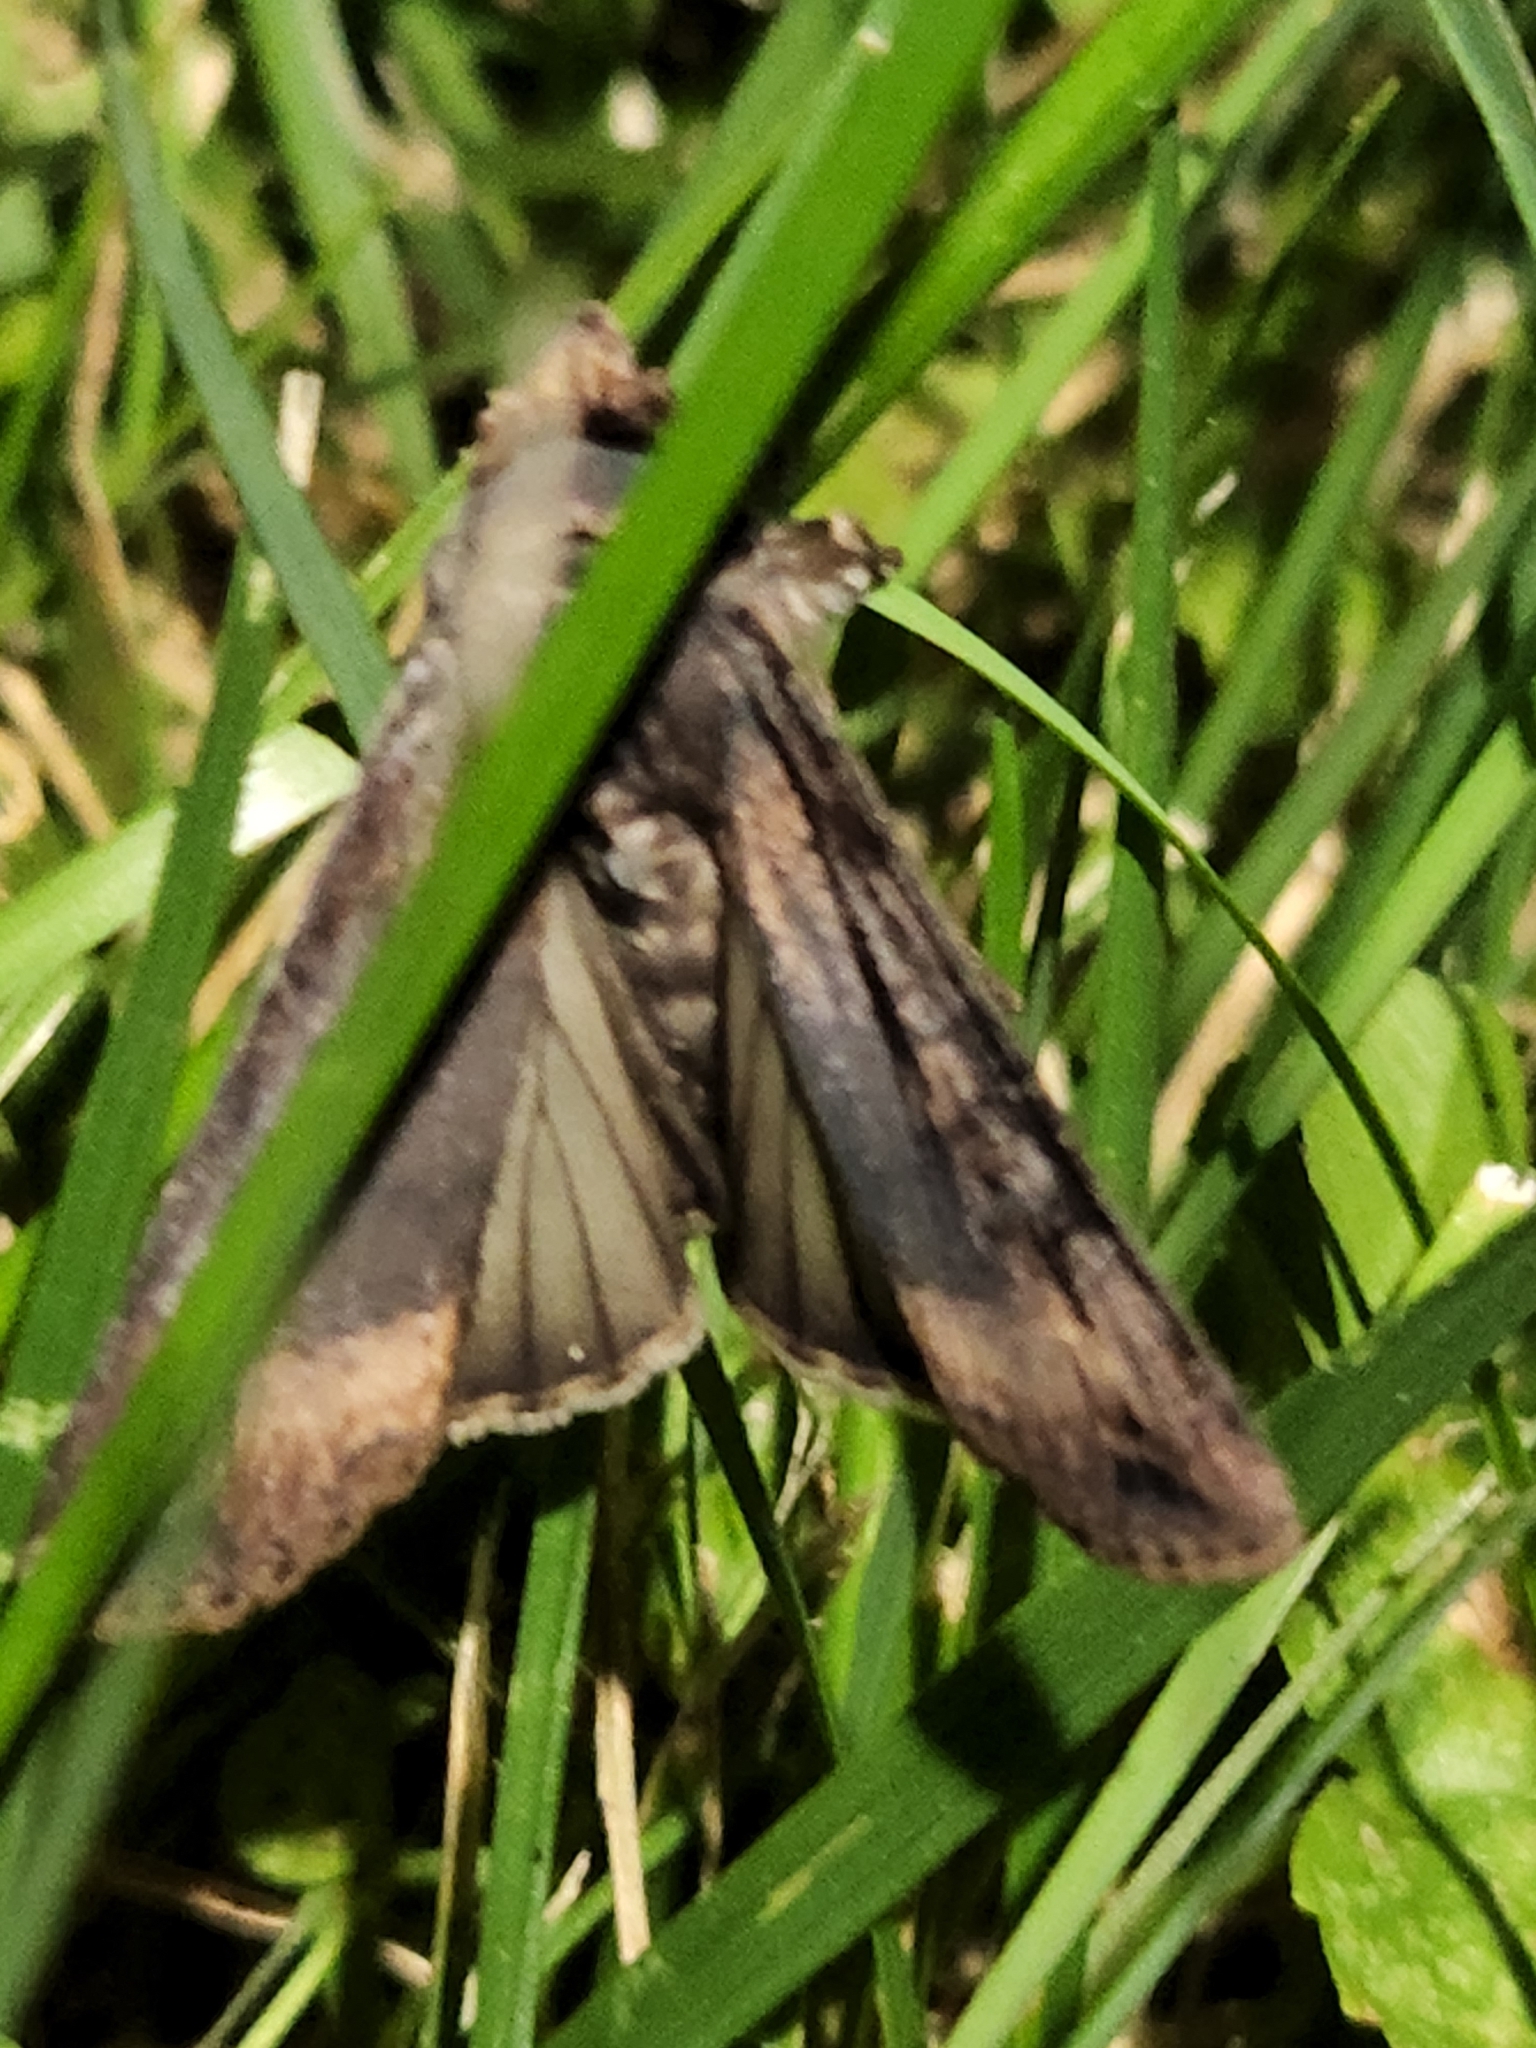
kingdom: Animalia
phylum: Arthropoda
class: Insecta
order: Lepidoptera
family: Noctuidae
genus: Agrotis
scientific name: Agrotis ipsilon
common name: Dark sword-grass
